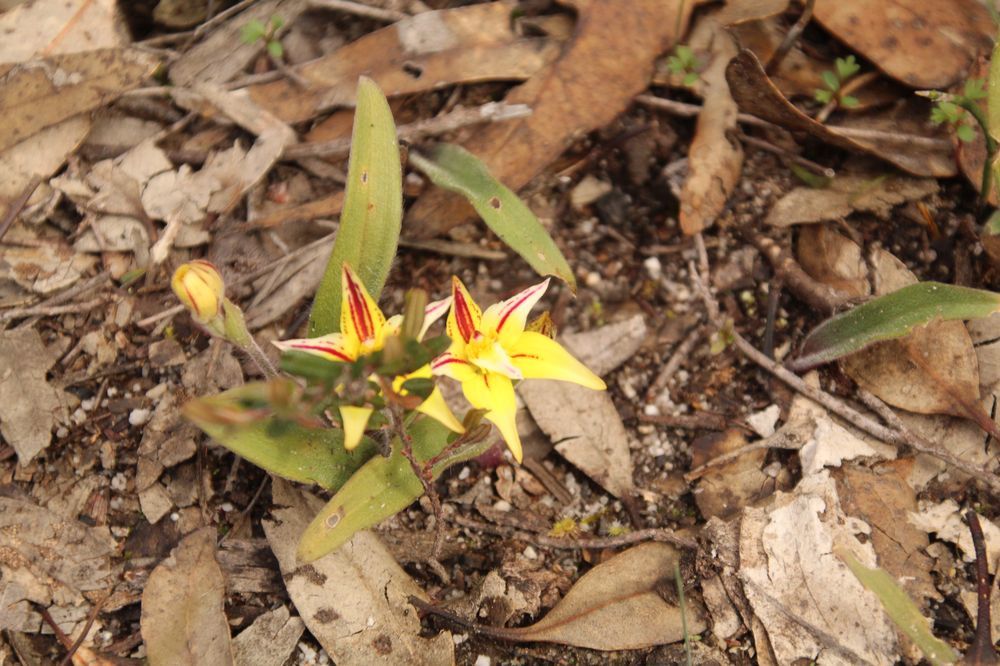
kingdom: Plantae
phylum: Tracheophyta
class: Liliopsida
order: Asparagales
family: Orchidaceae
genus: Caladenia
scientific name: Caladenia flava
